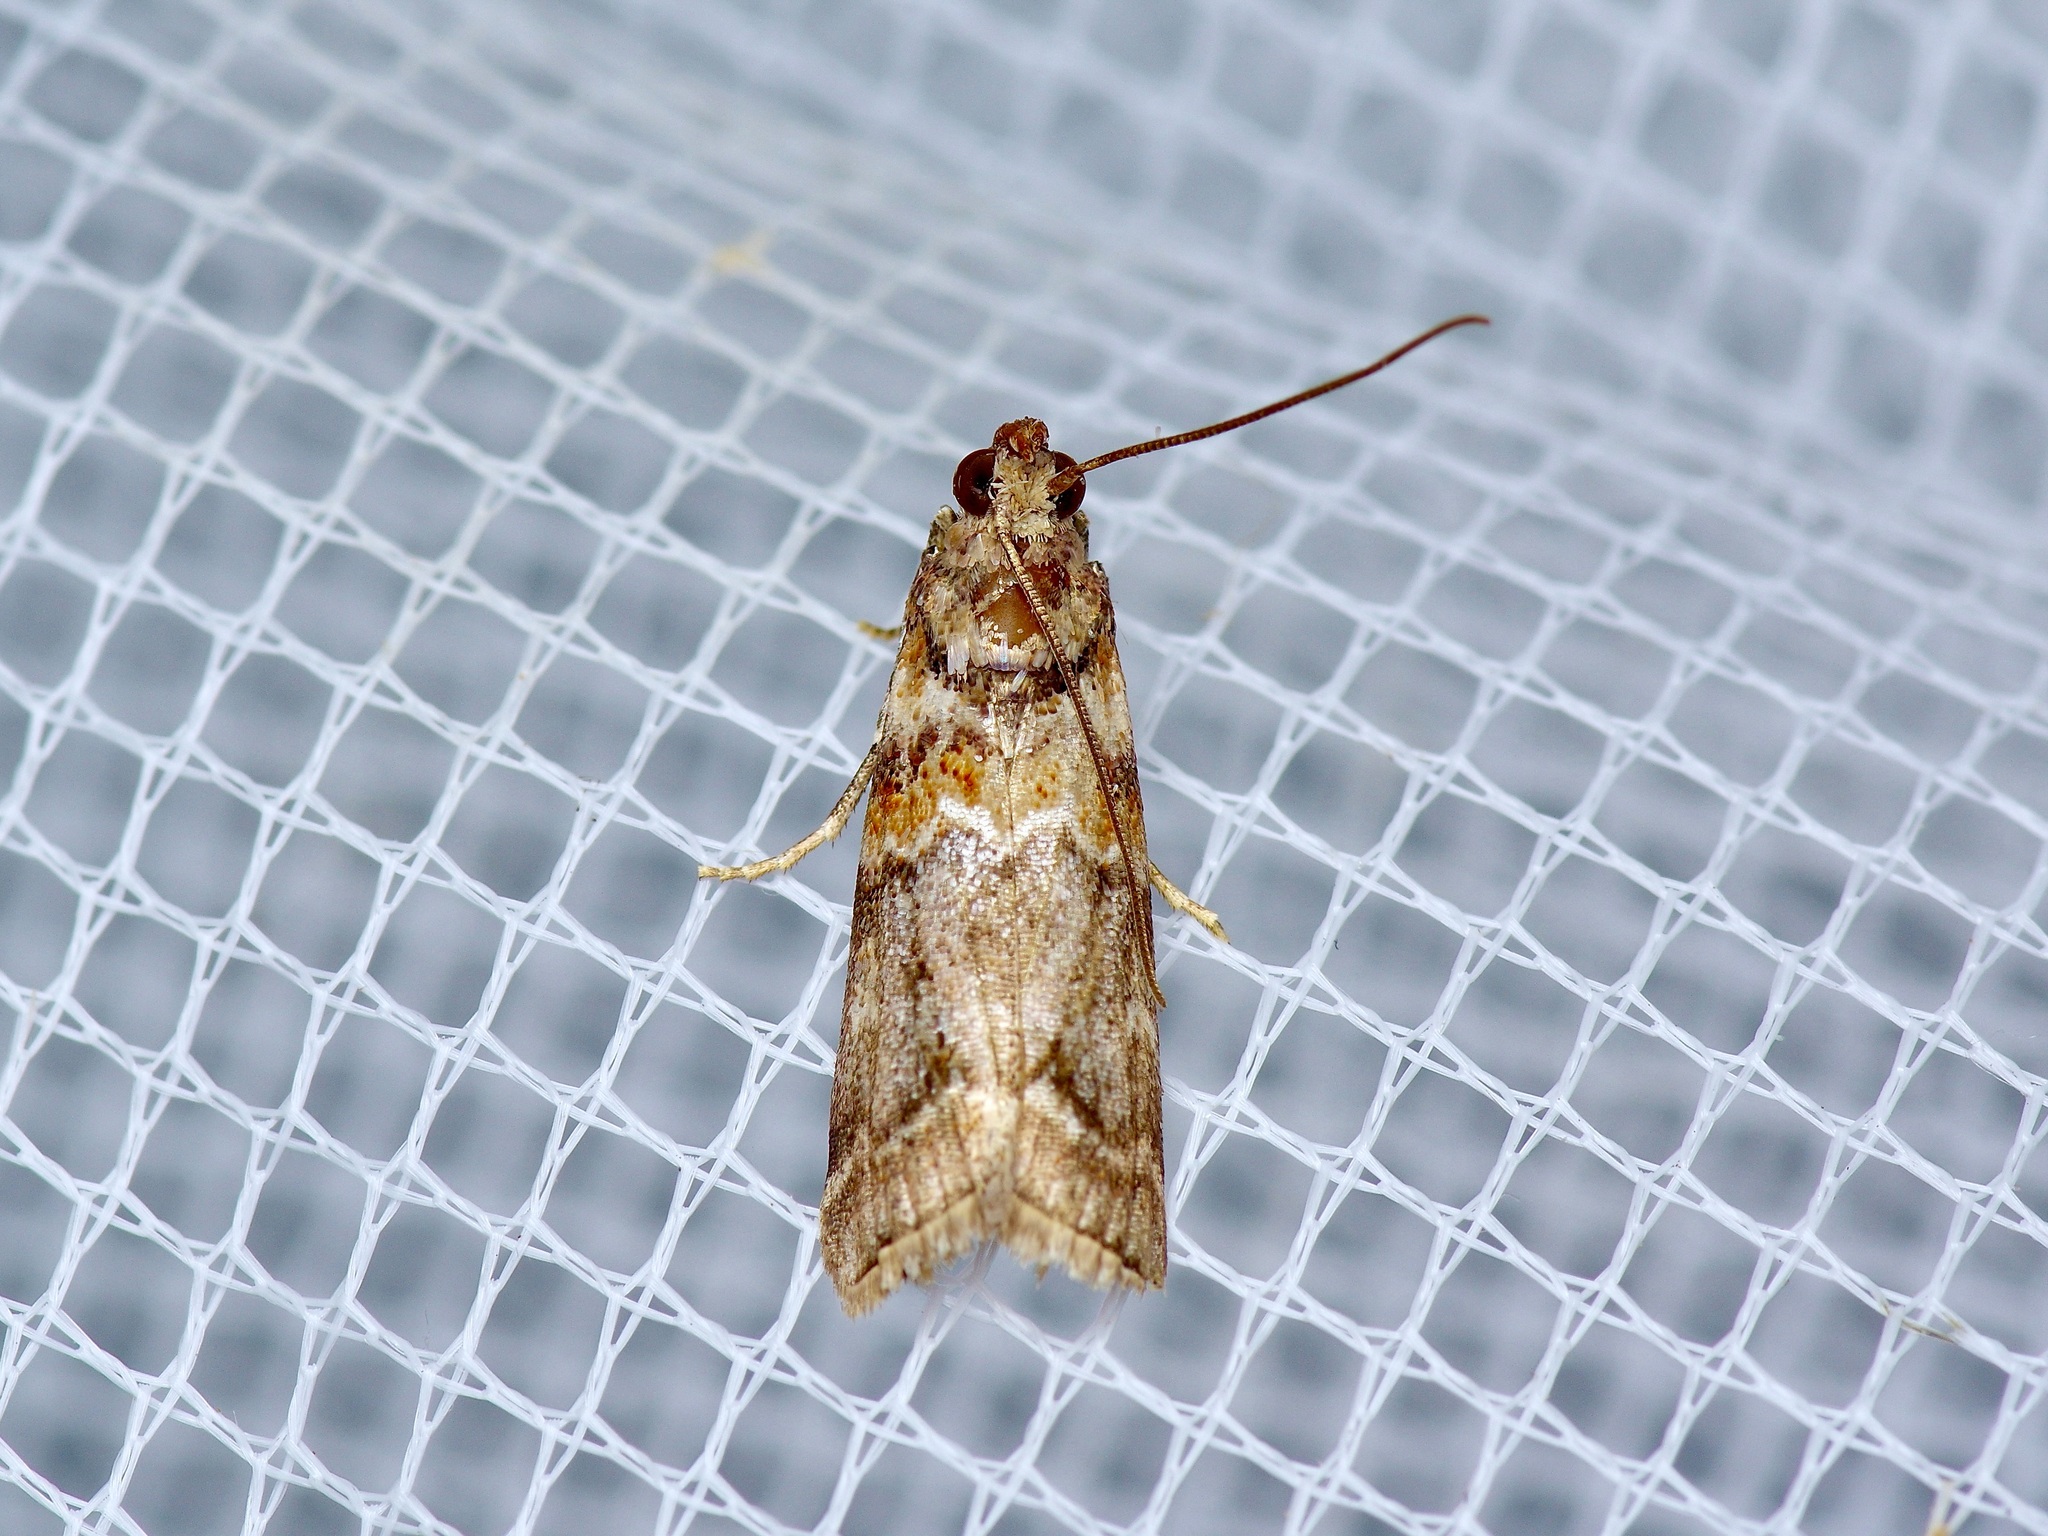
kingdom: Animalia
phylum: Arthropoda
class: Insecta
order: Lepidoptera
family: Pyralidae
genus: Dioryctria
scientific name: Dioryctria caesirufella
